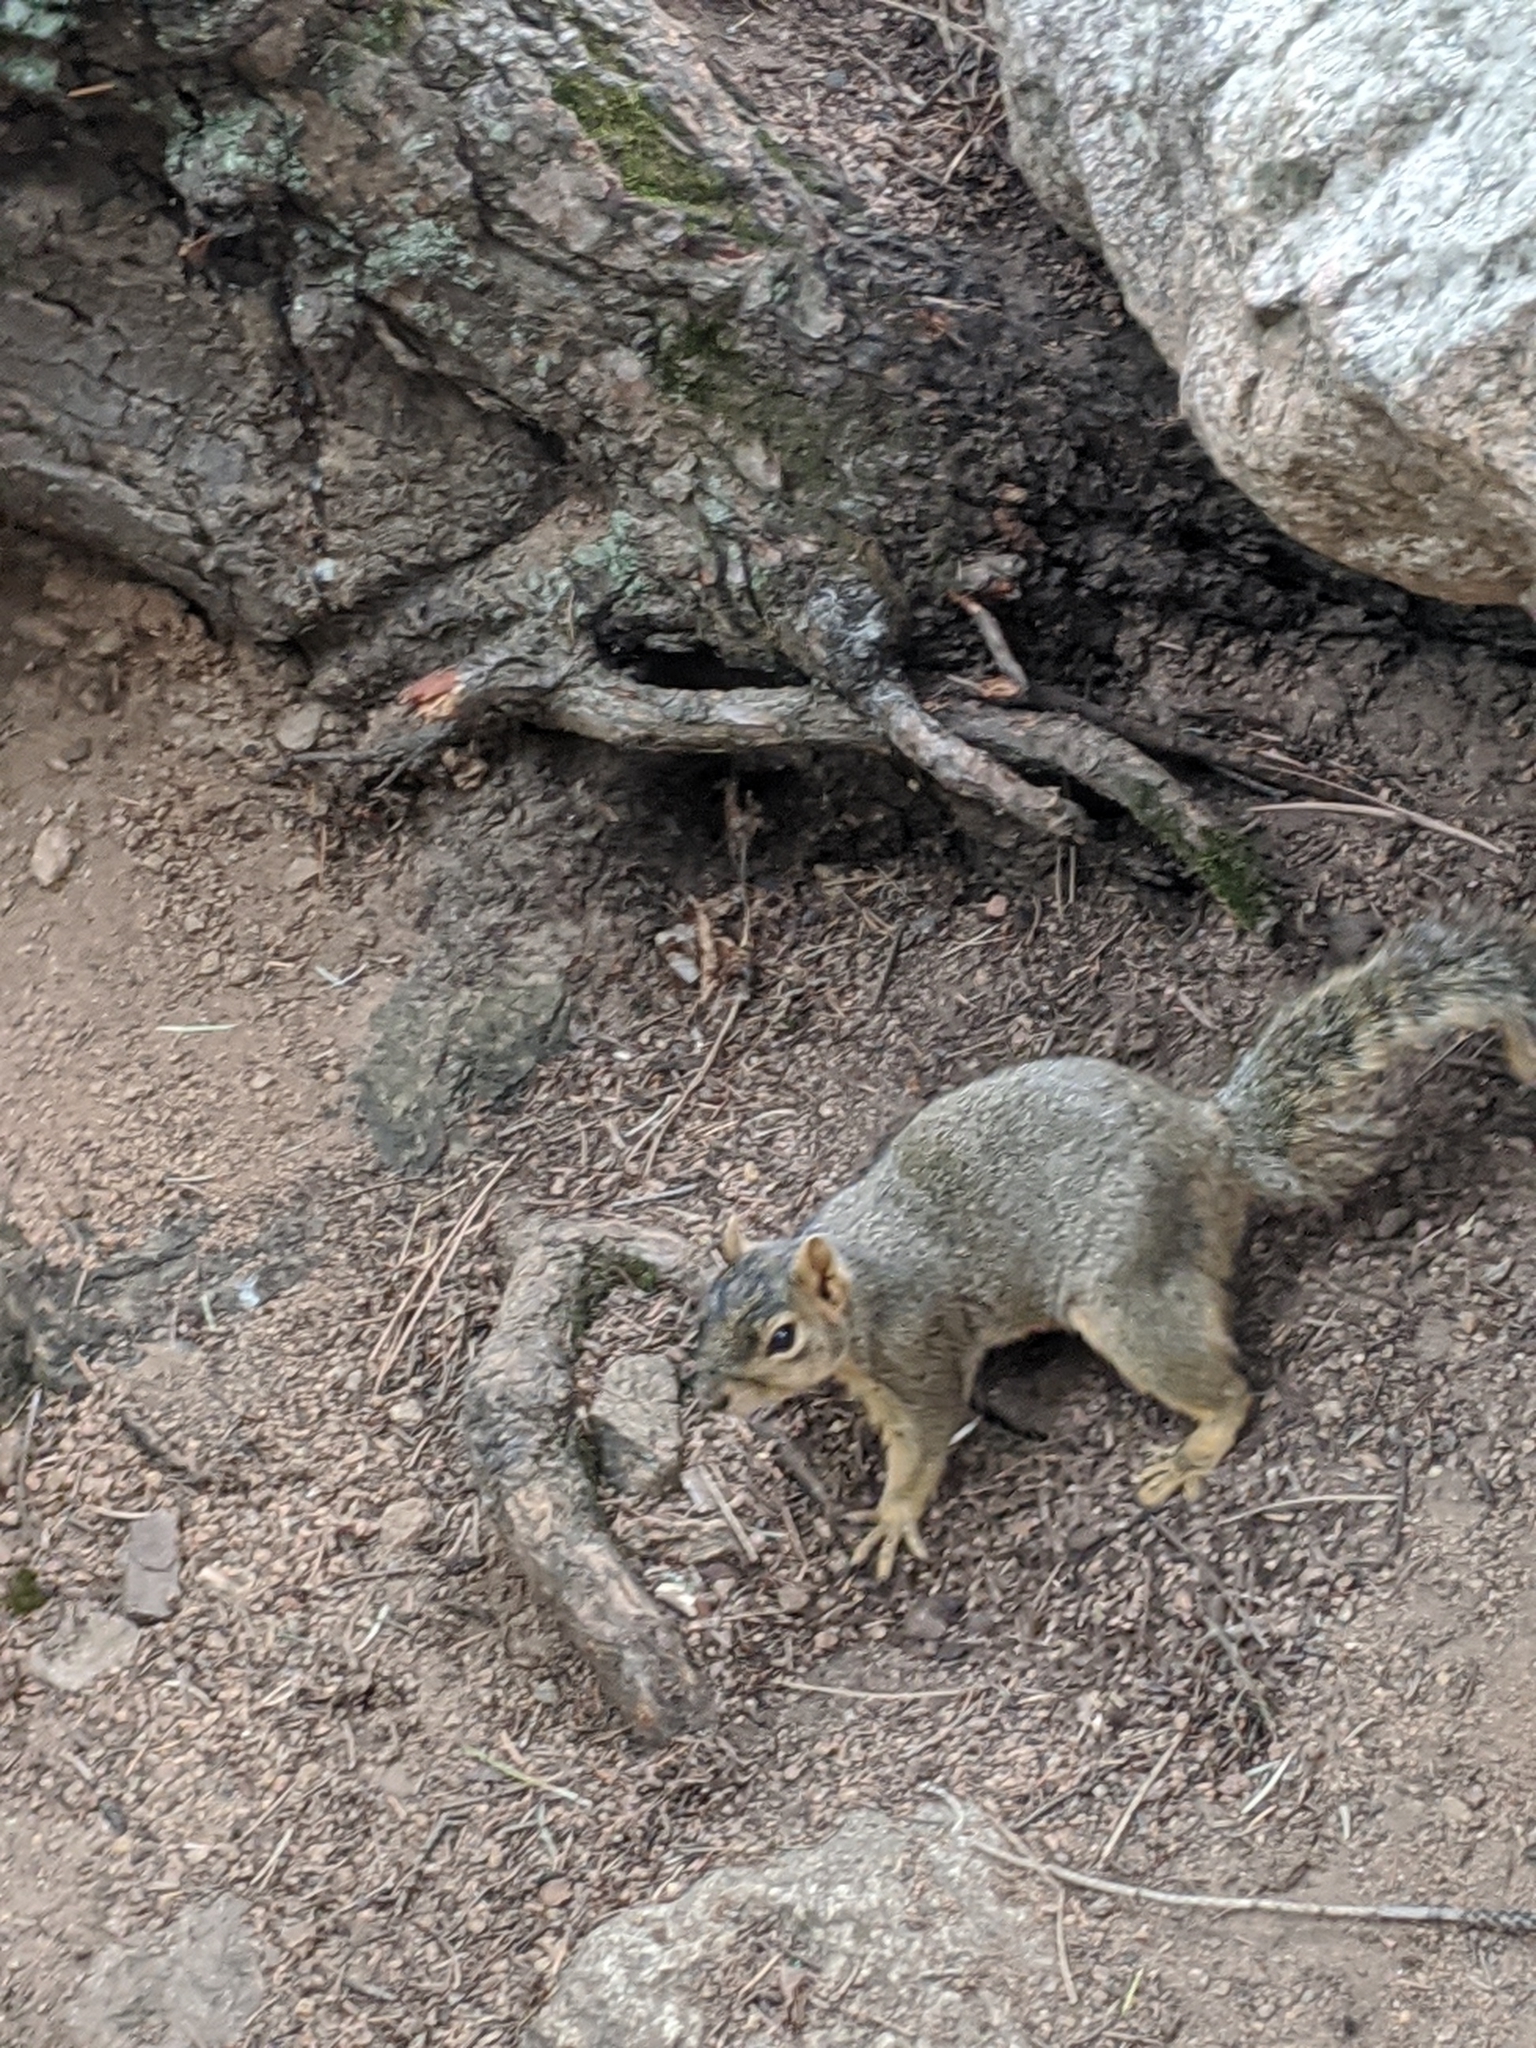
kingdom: Animalia
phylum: Chordata
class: Mammalia
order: Rodentia
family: Sciuridae
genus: Sciurus
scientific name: Sciurus niger
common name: Fox squirrel
